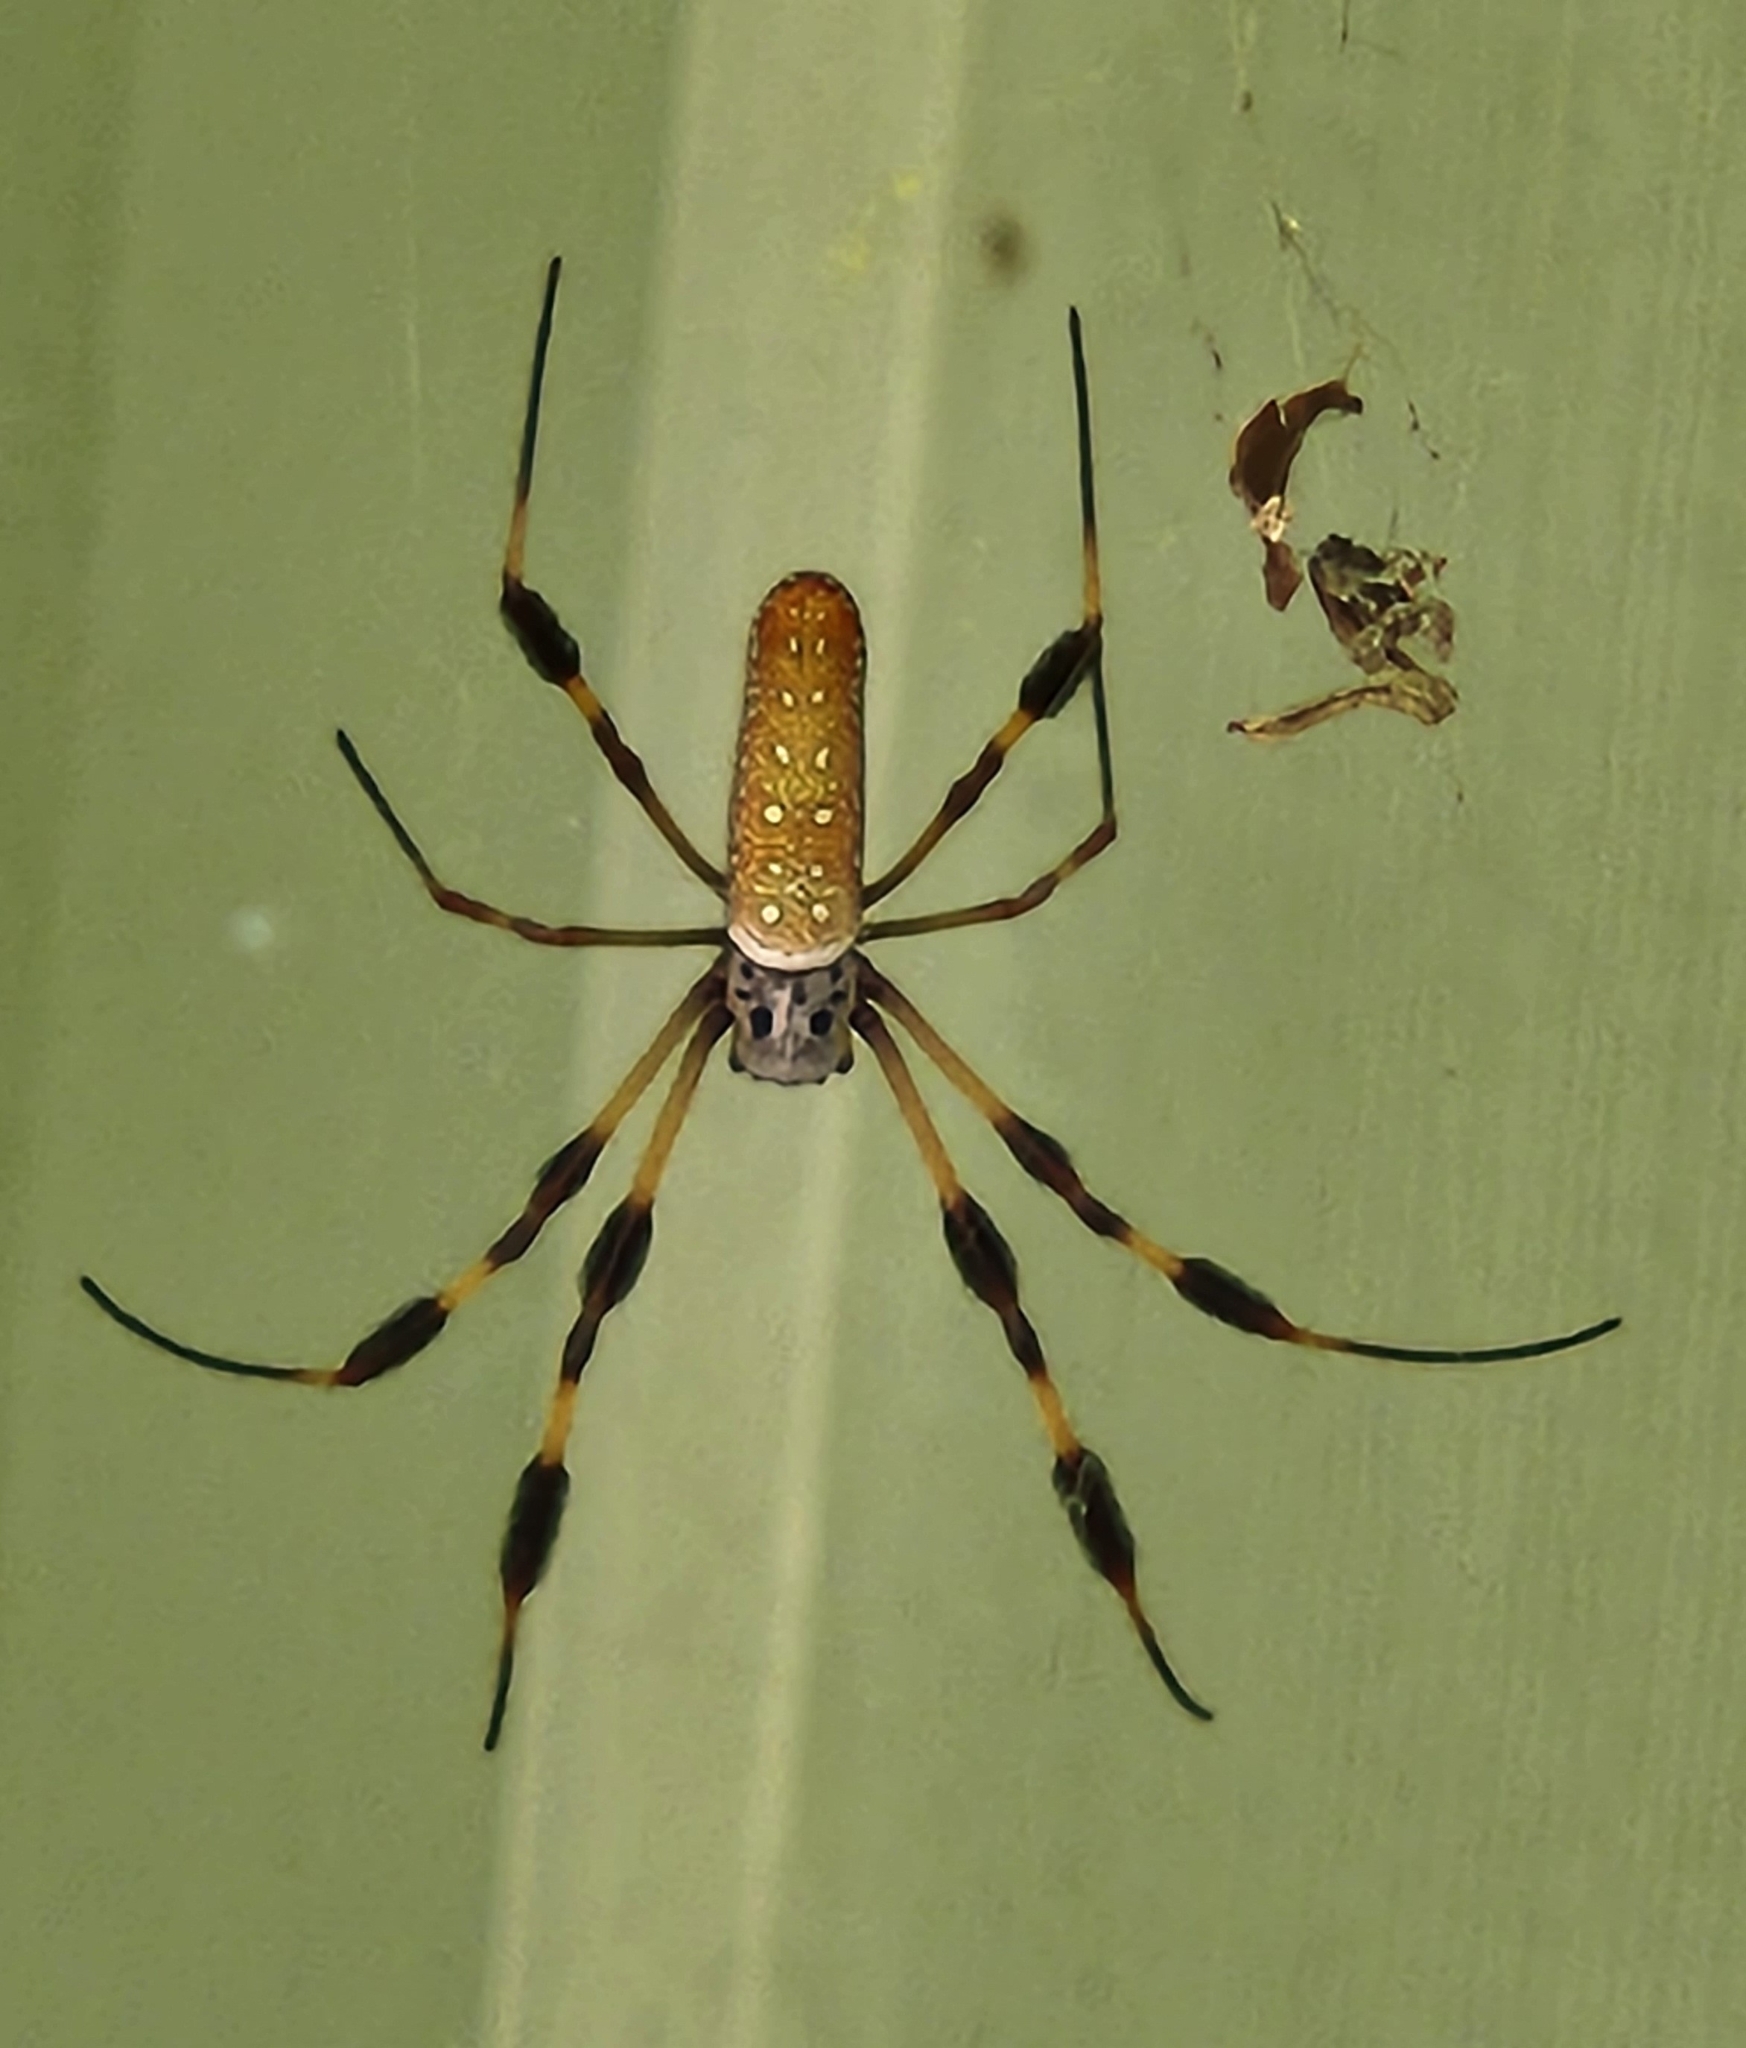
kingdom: Animalia
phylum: Arthropoda
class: Arachnida
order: Araneae
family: Araneidae
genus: Trichonephila
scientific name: Trichonephila clavipes
